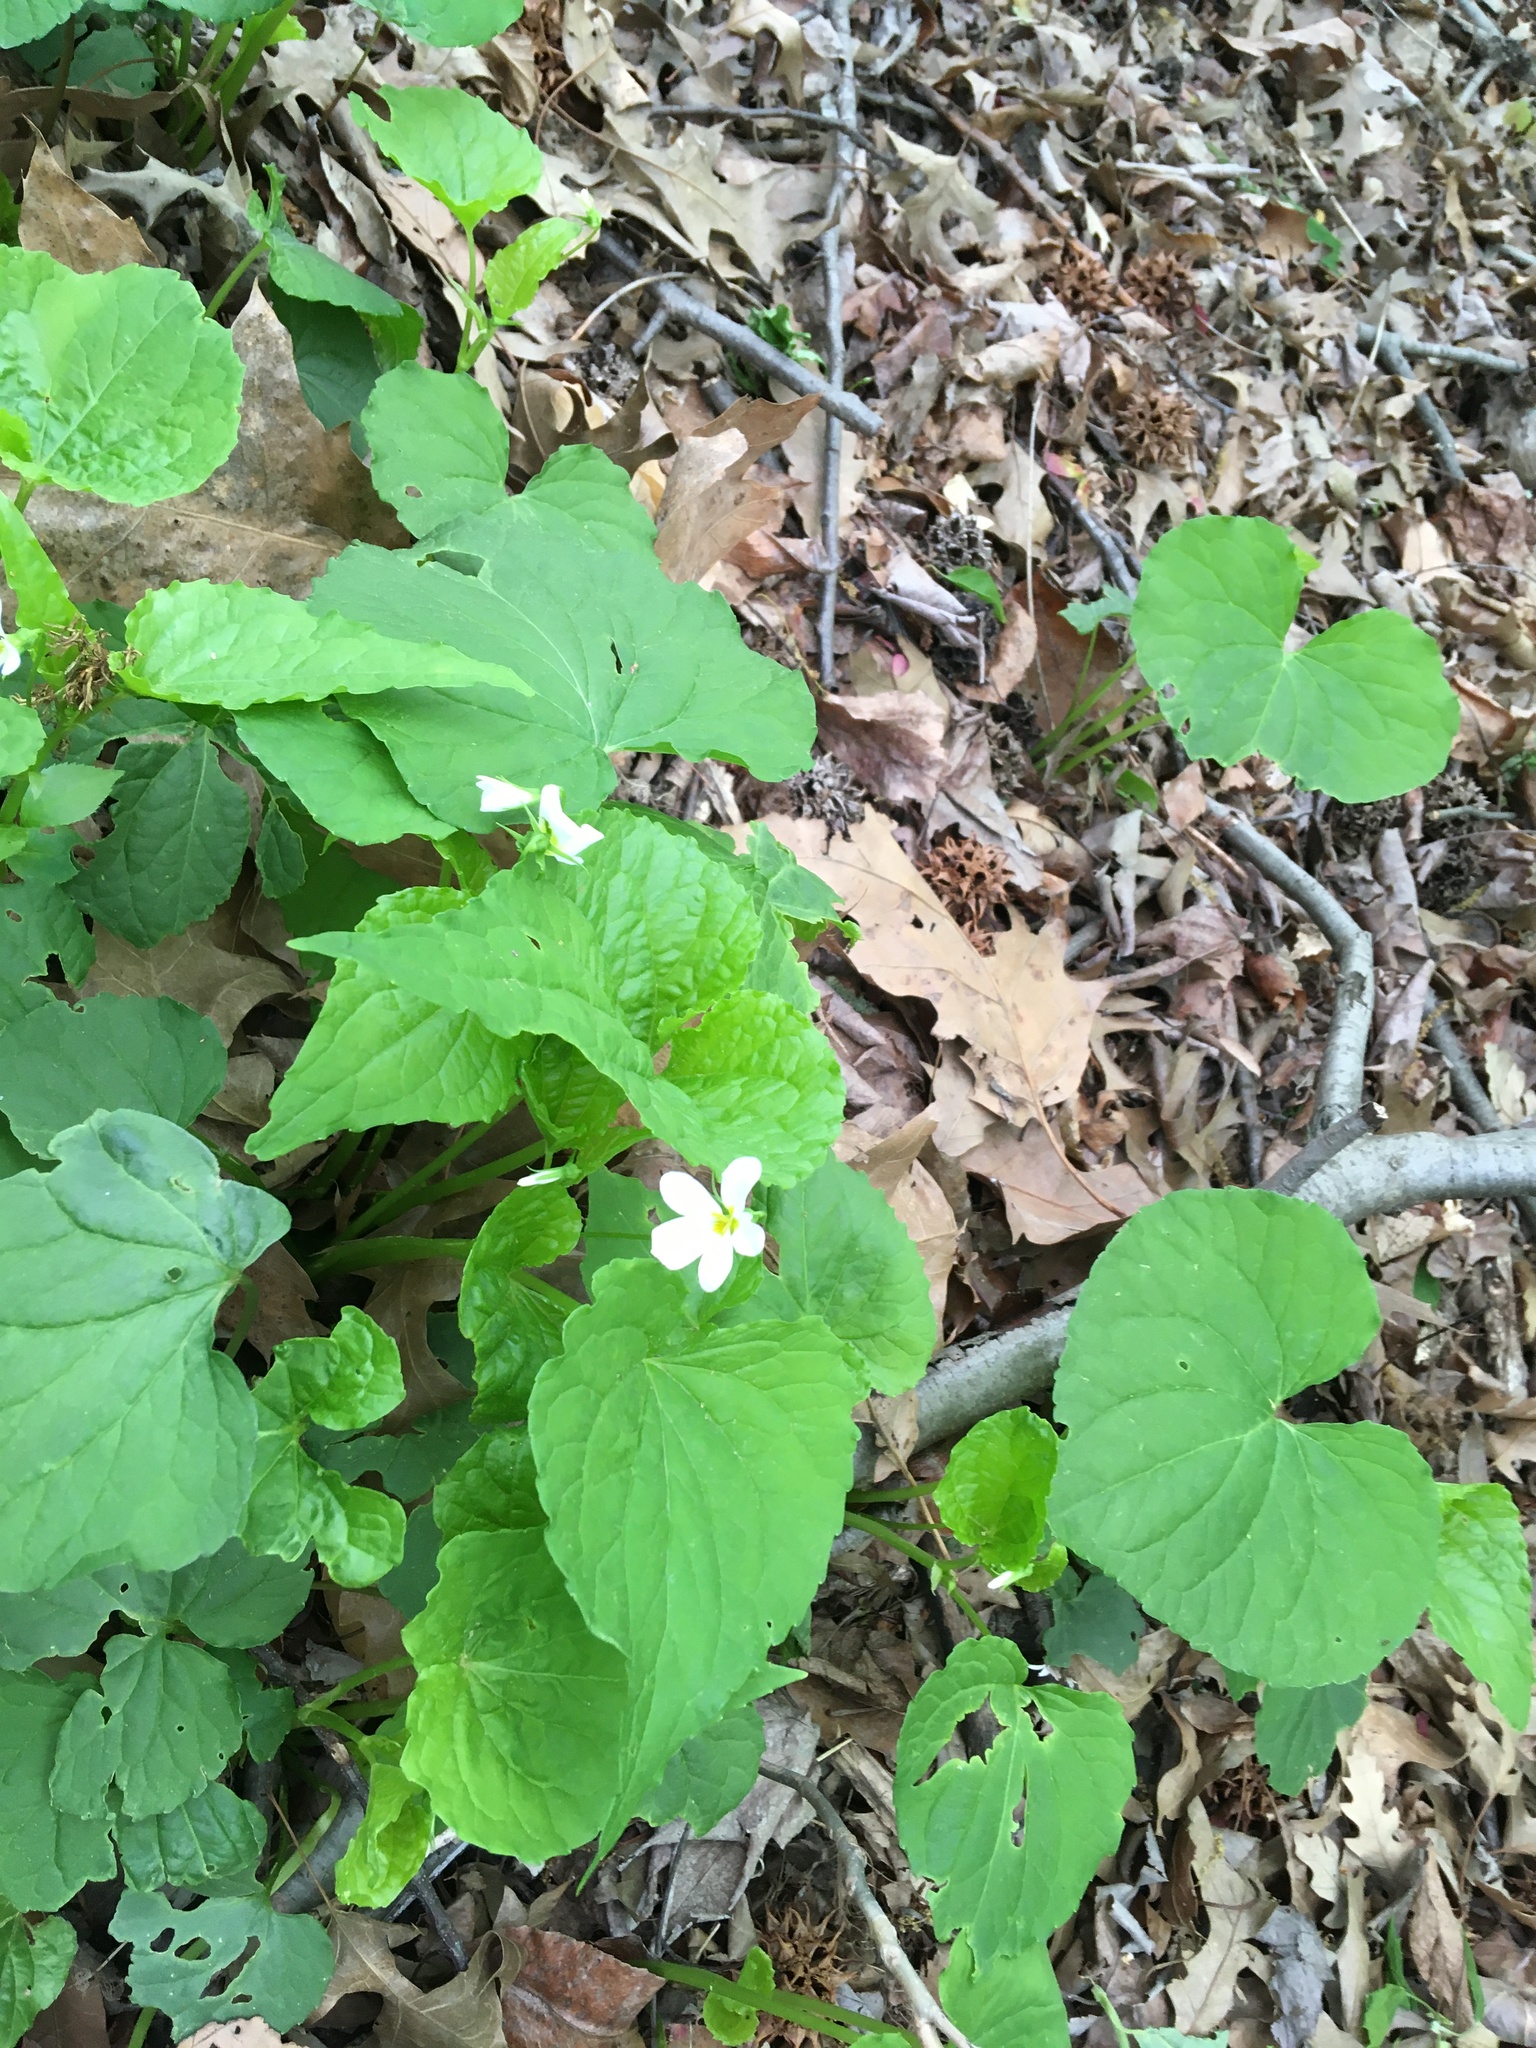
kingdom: Plantae
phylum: Tracheophyta
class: Magnoliopsida
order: Malpighiales
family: Violaceae
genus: Viola
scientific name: Viola canadensis
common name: Canada violet
